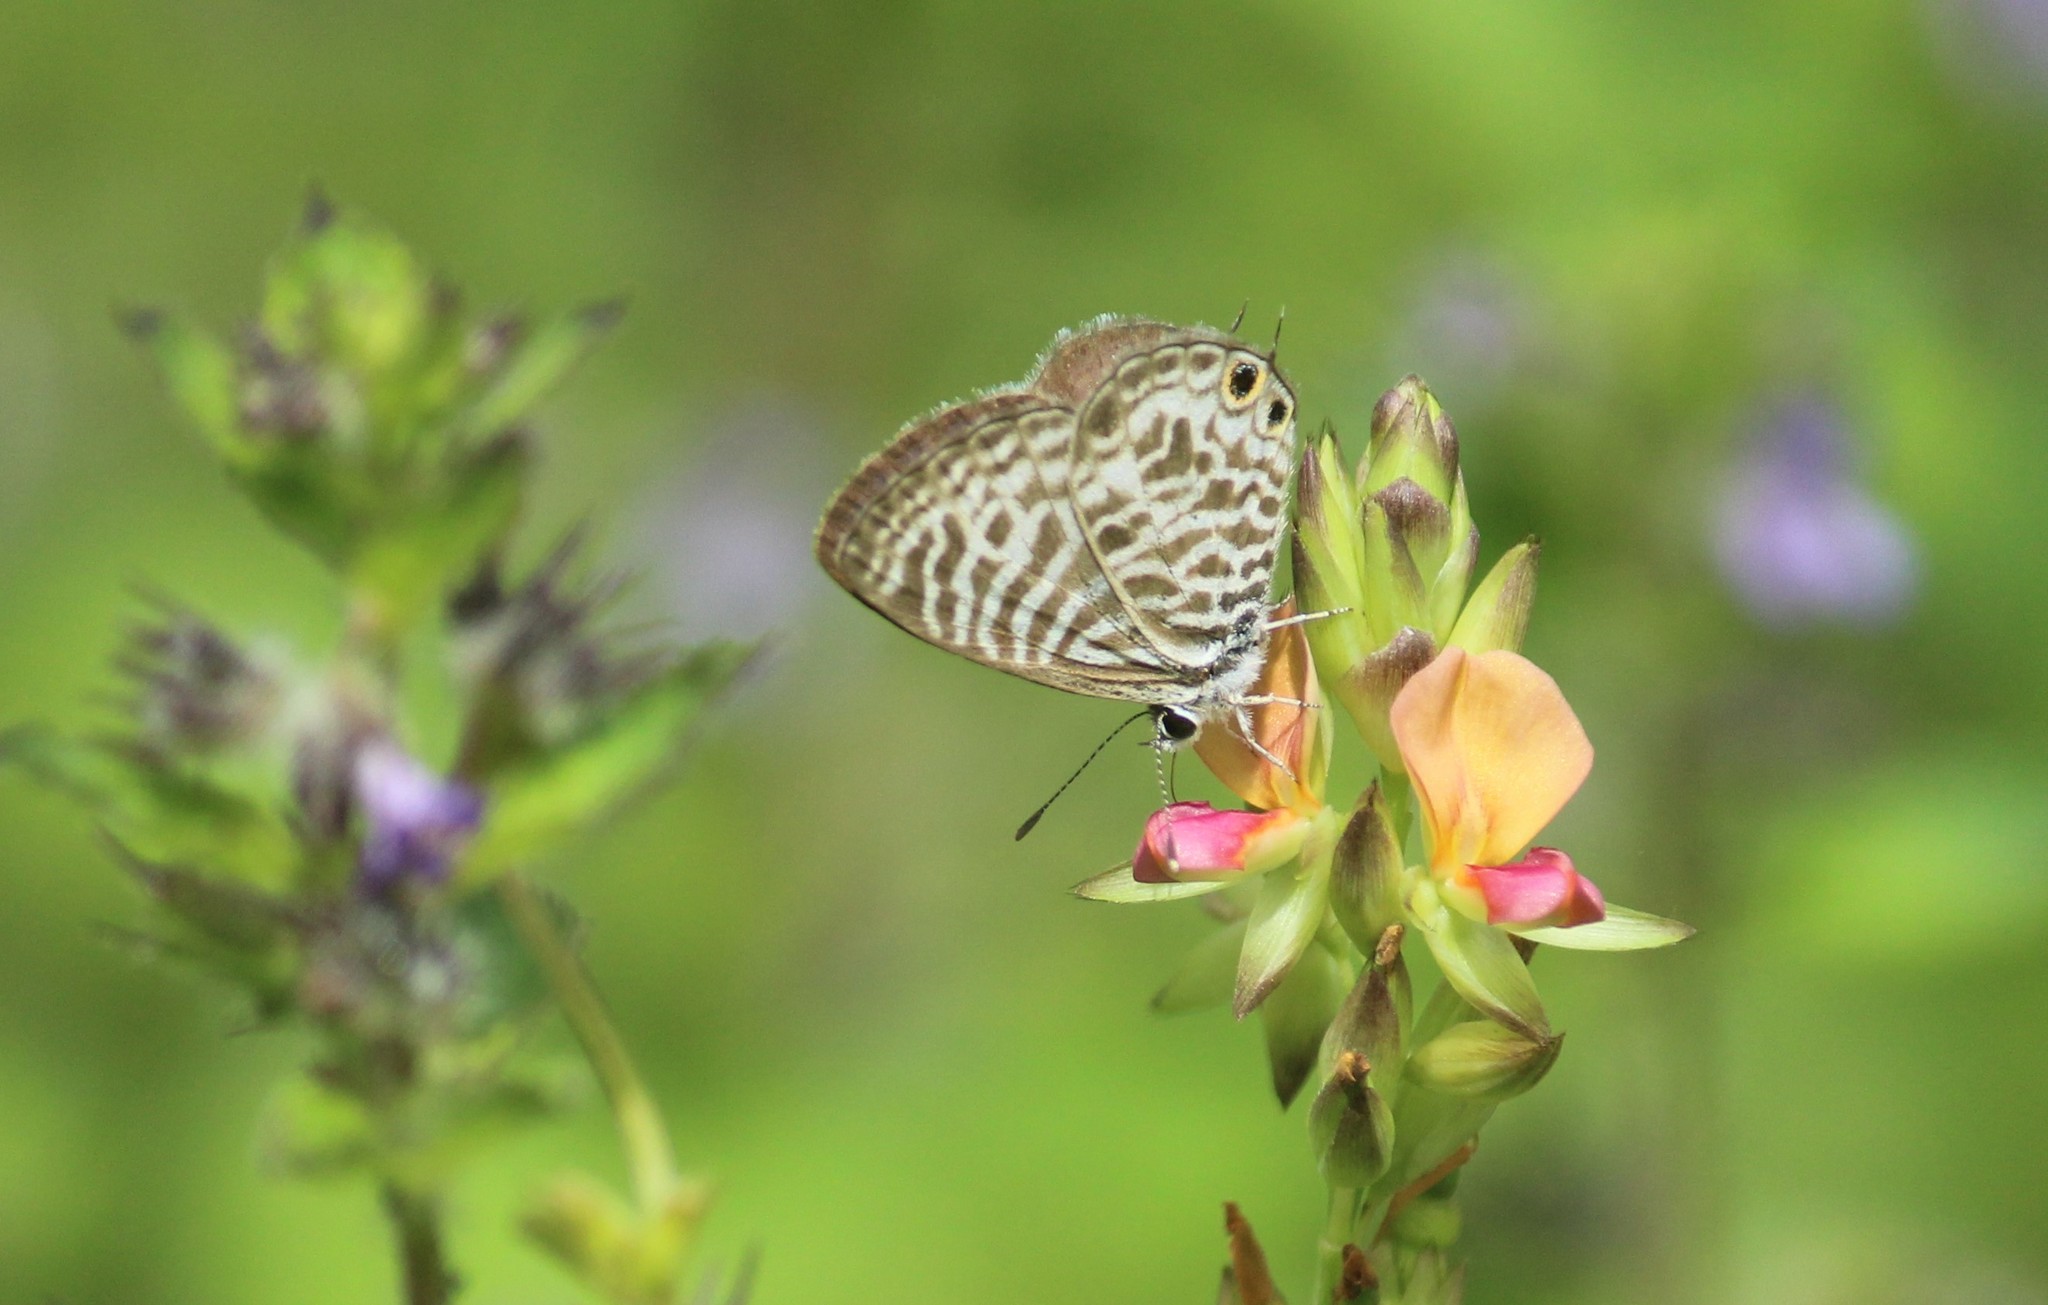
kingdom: Animalia
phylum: Arthropoda
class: Insecta
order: Lepidoptera
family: Lycaenidae
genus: Leptotes
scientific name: Leptotes plinius
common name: Zebra blue
